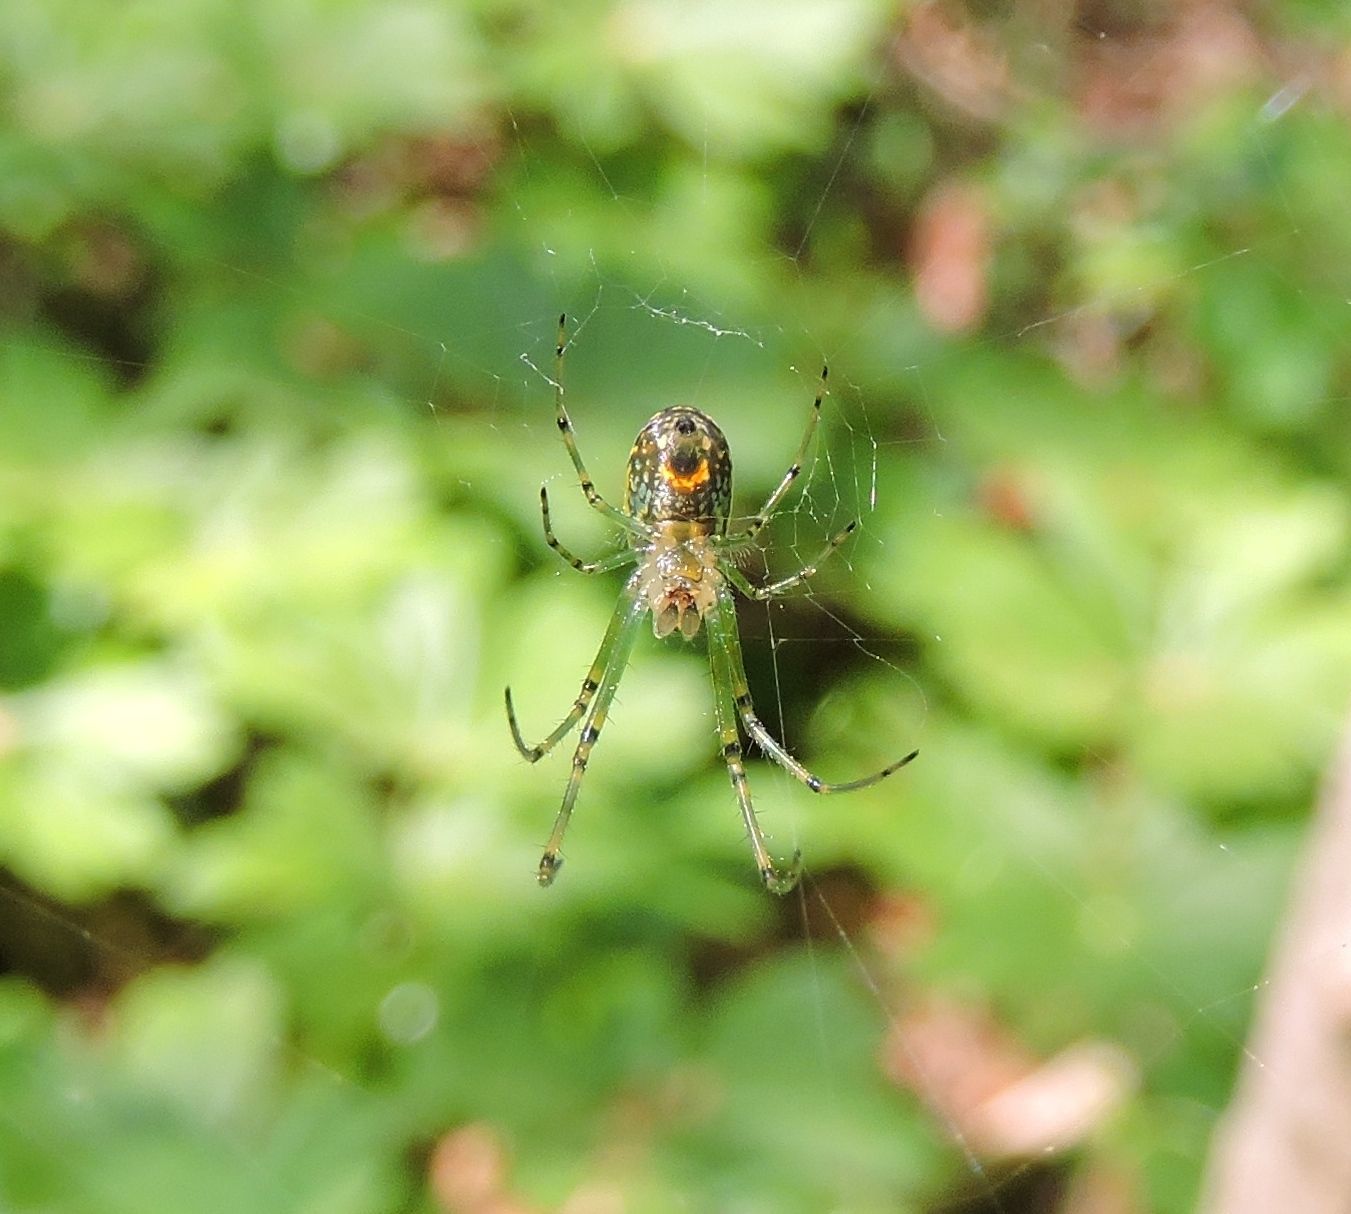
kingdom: Animalia
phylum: Arthropoda
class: Arachnida
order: Araneae
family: Tetragnathidae
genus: Leucauge
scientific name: Leucauge venusta
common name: Longjawed orb weavers
